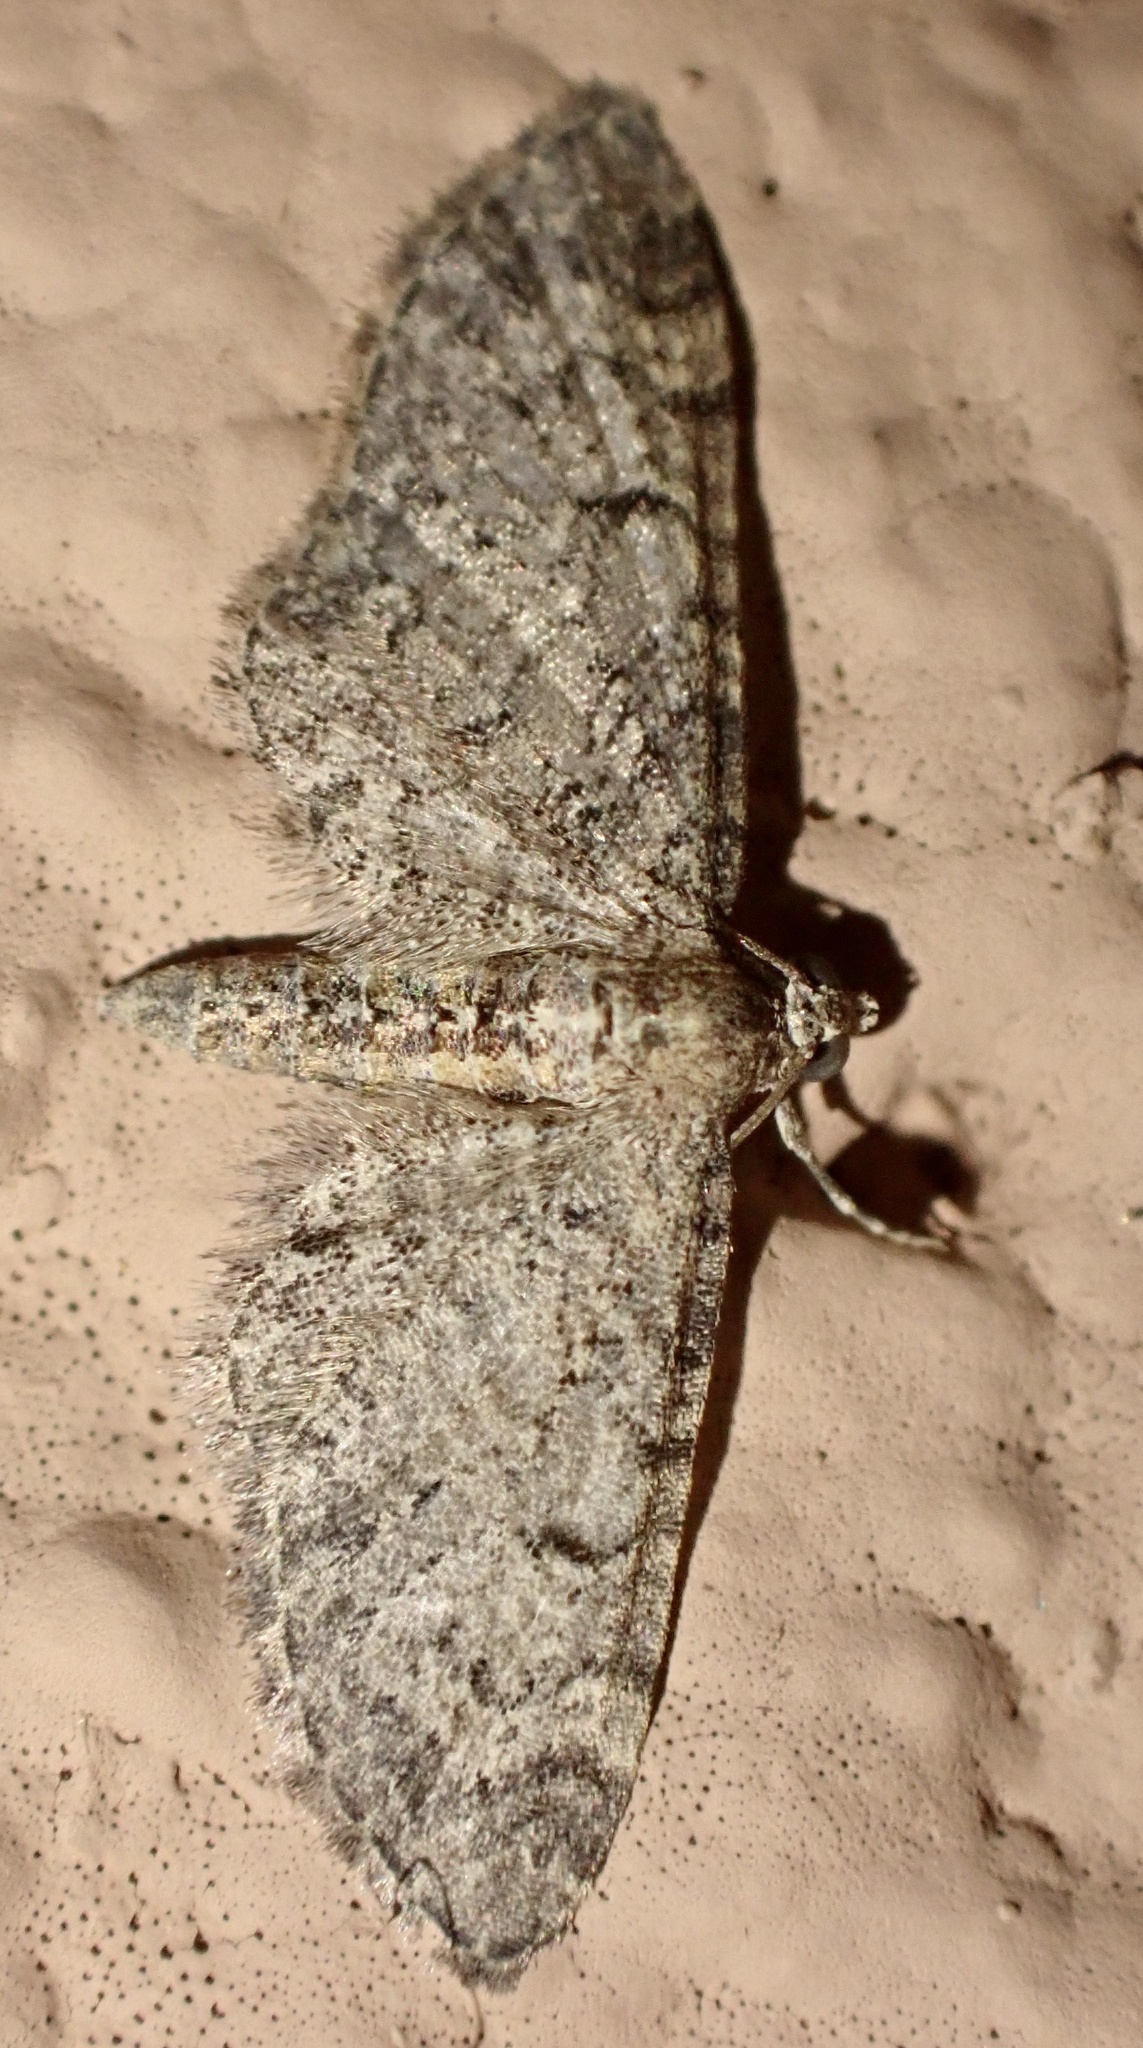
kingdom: Animalia
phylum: Arthropoda
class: Insecta
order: Lepidoptera
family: Geometridae
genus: Eupithecia
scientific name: Eupithecia ultimaria
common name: Channel islands pug
